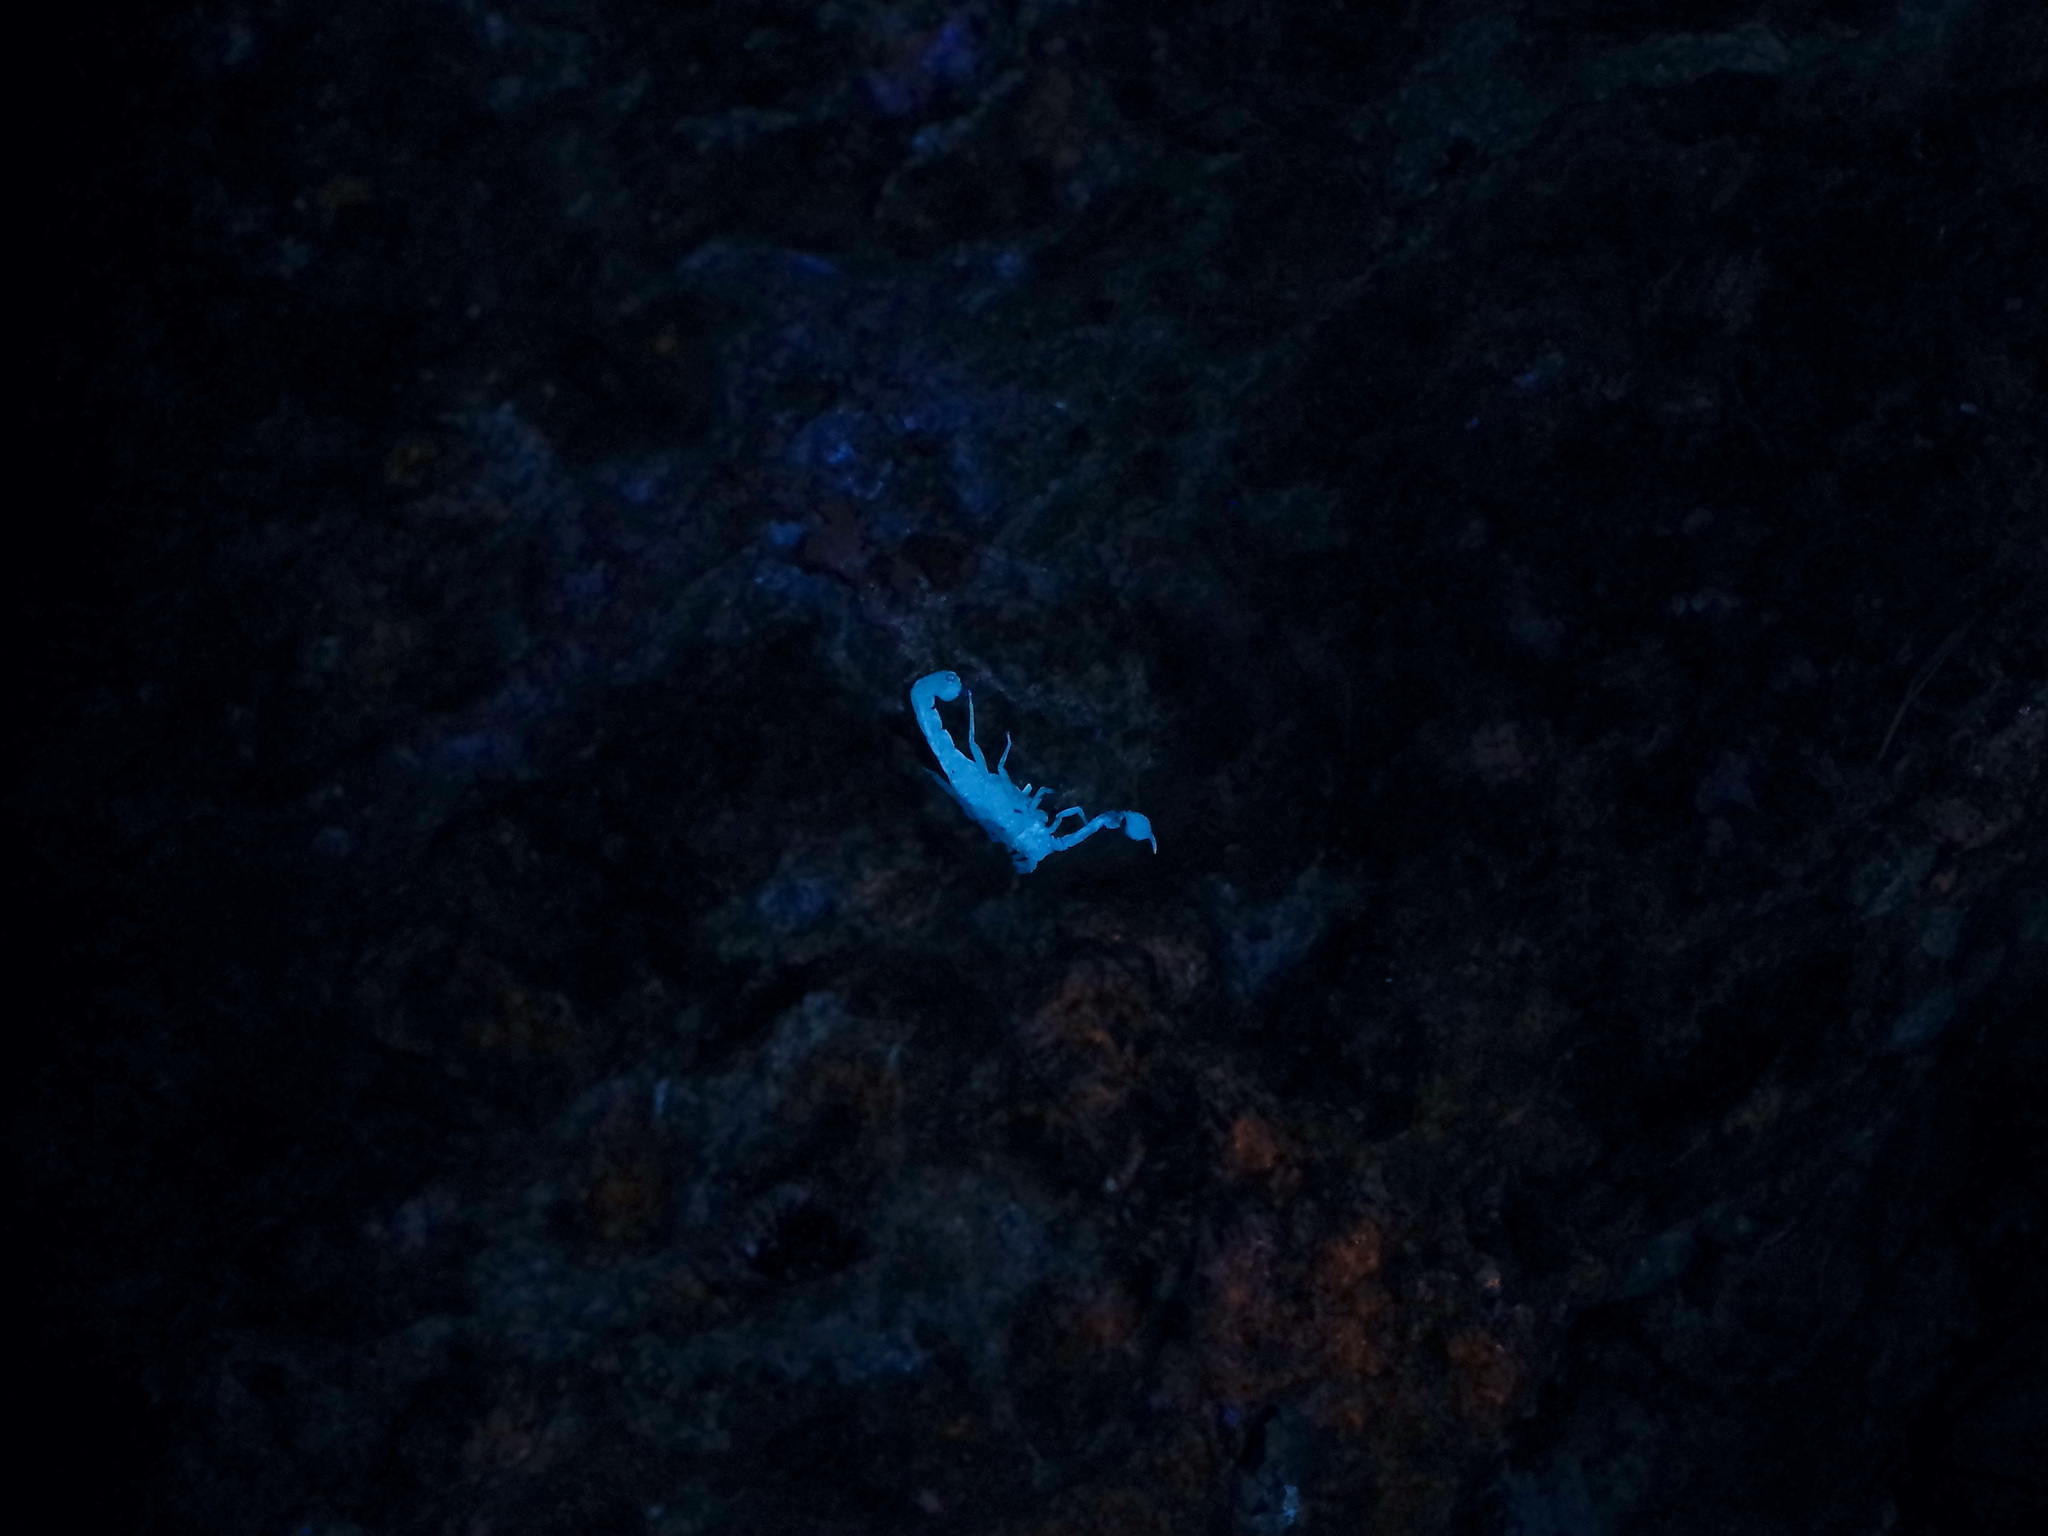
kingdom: Animalia
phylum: Arthropoda
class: Arachnida
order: Scorpiones
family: Vaejovidae
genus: Pseudouroctonus
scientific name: Pseudouroctonus reddelli
